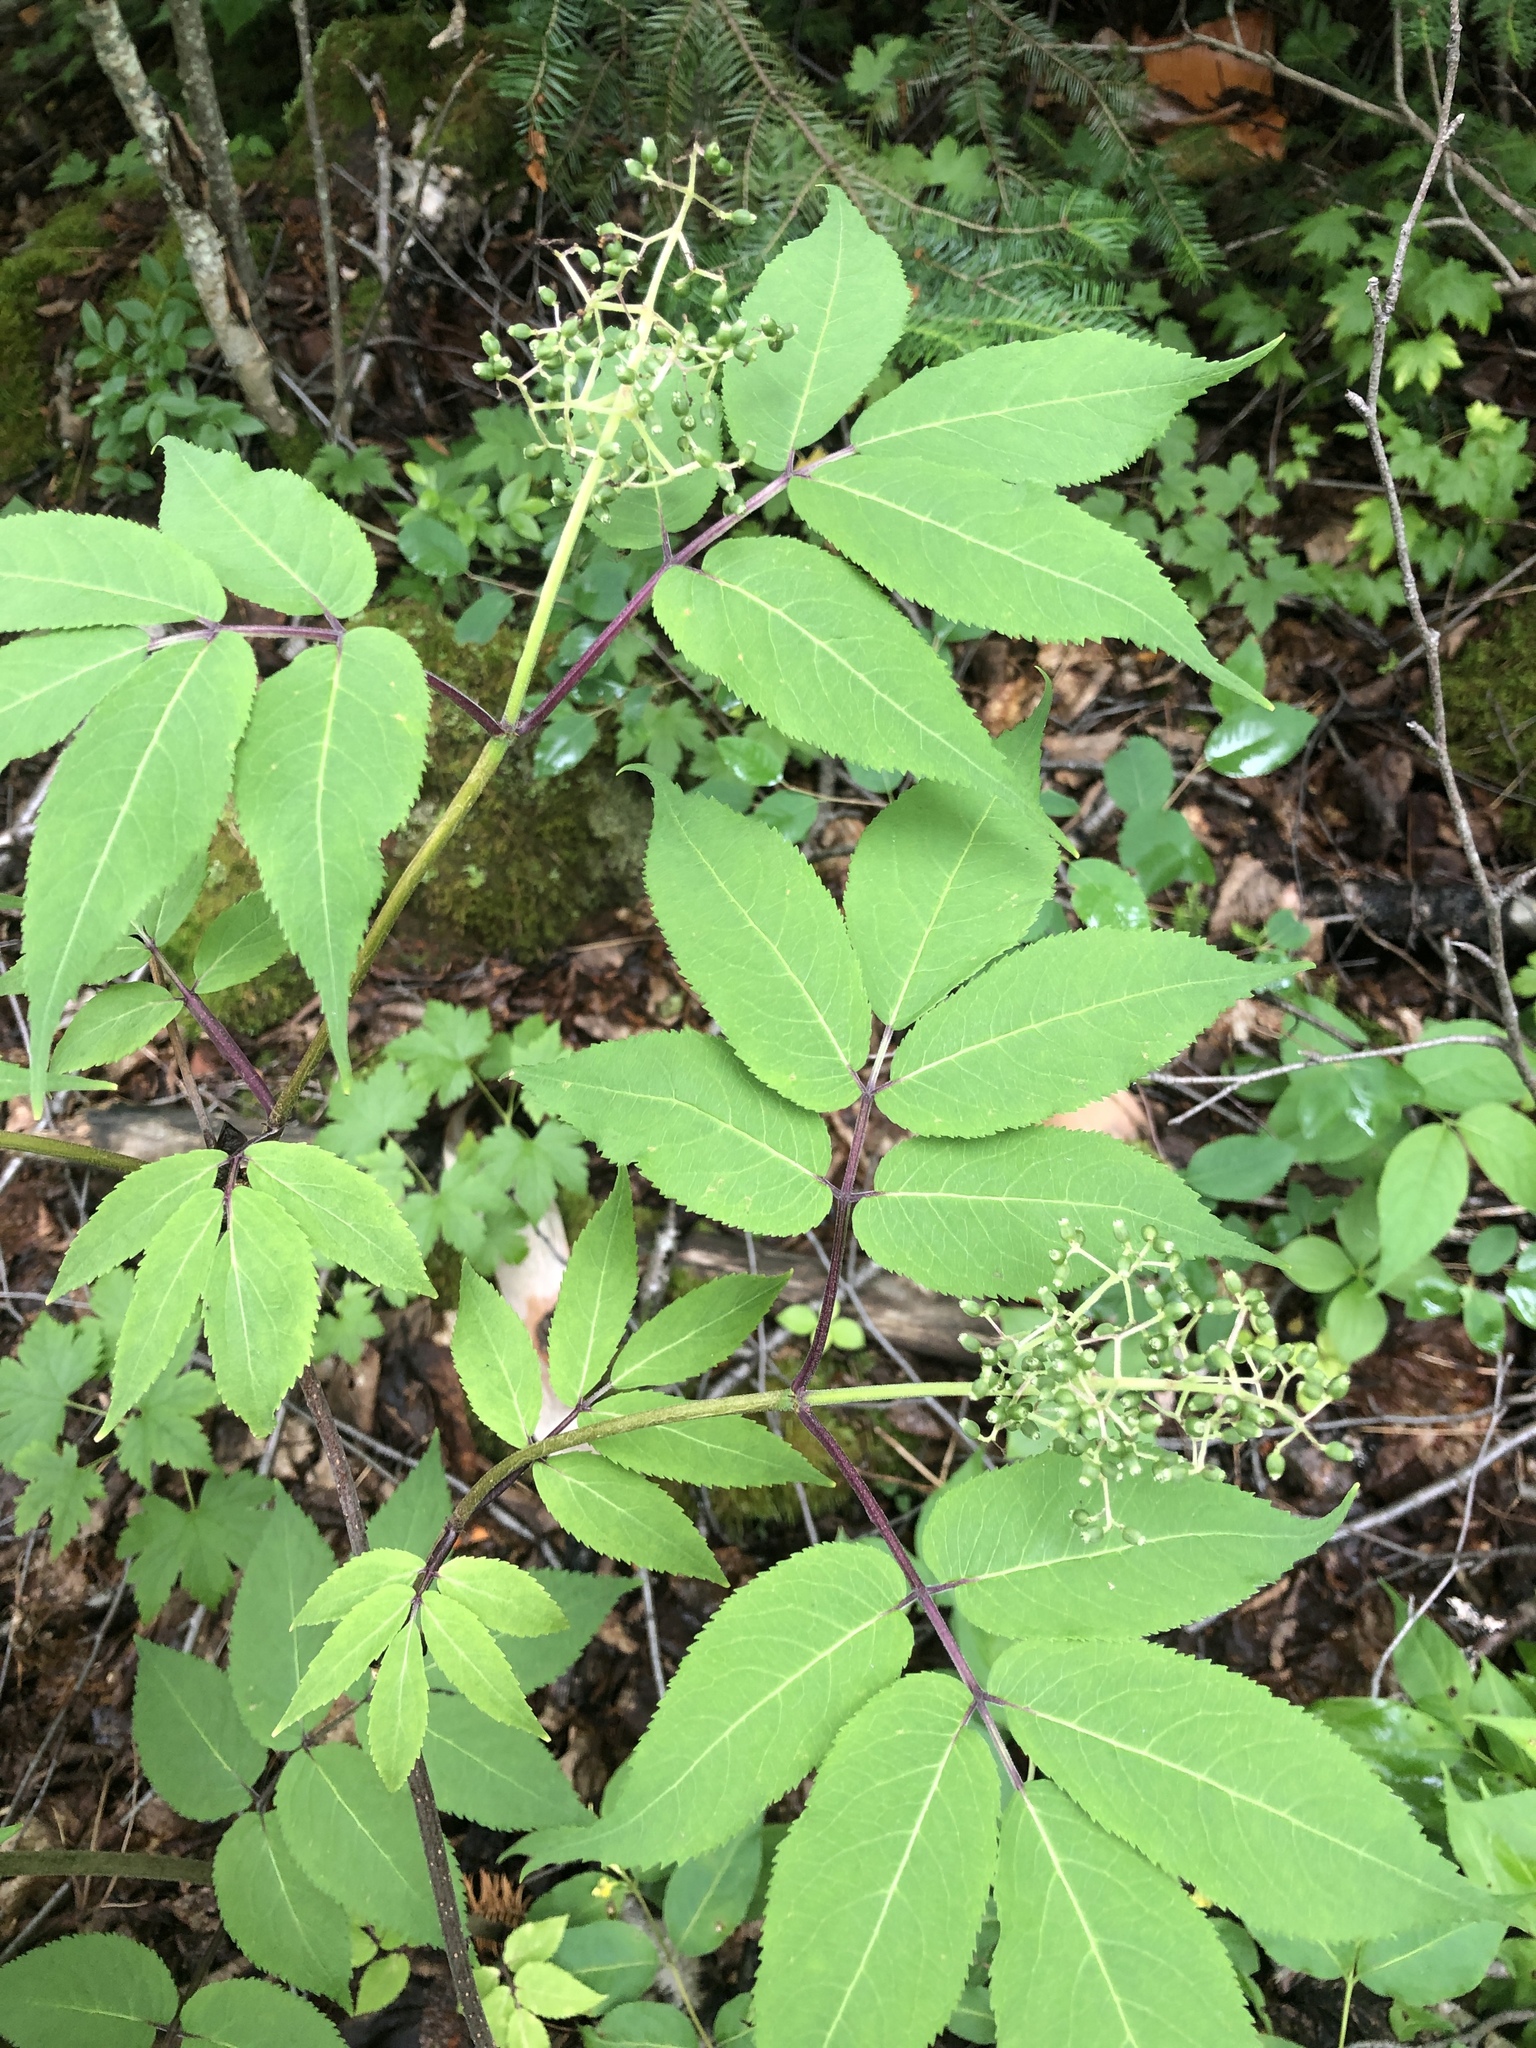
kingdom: Plantae
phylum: Tracheophyta
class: Magnoliopsida
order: Dipsacales
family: Viburnaceae
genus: Sambucus
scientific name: Sambucus racemosa
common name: Red-berried elder
